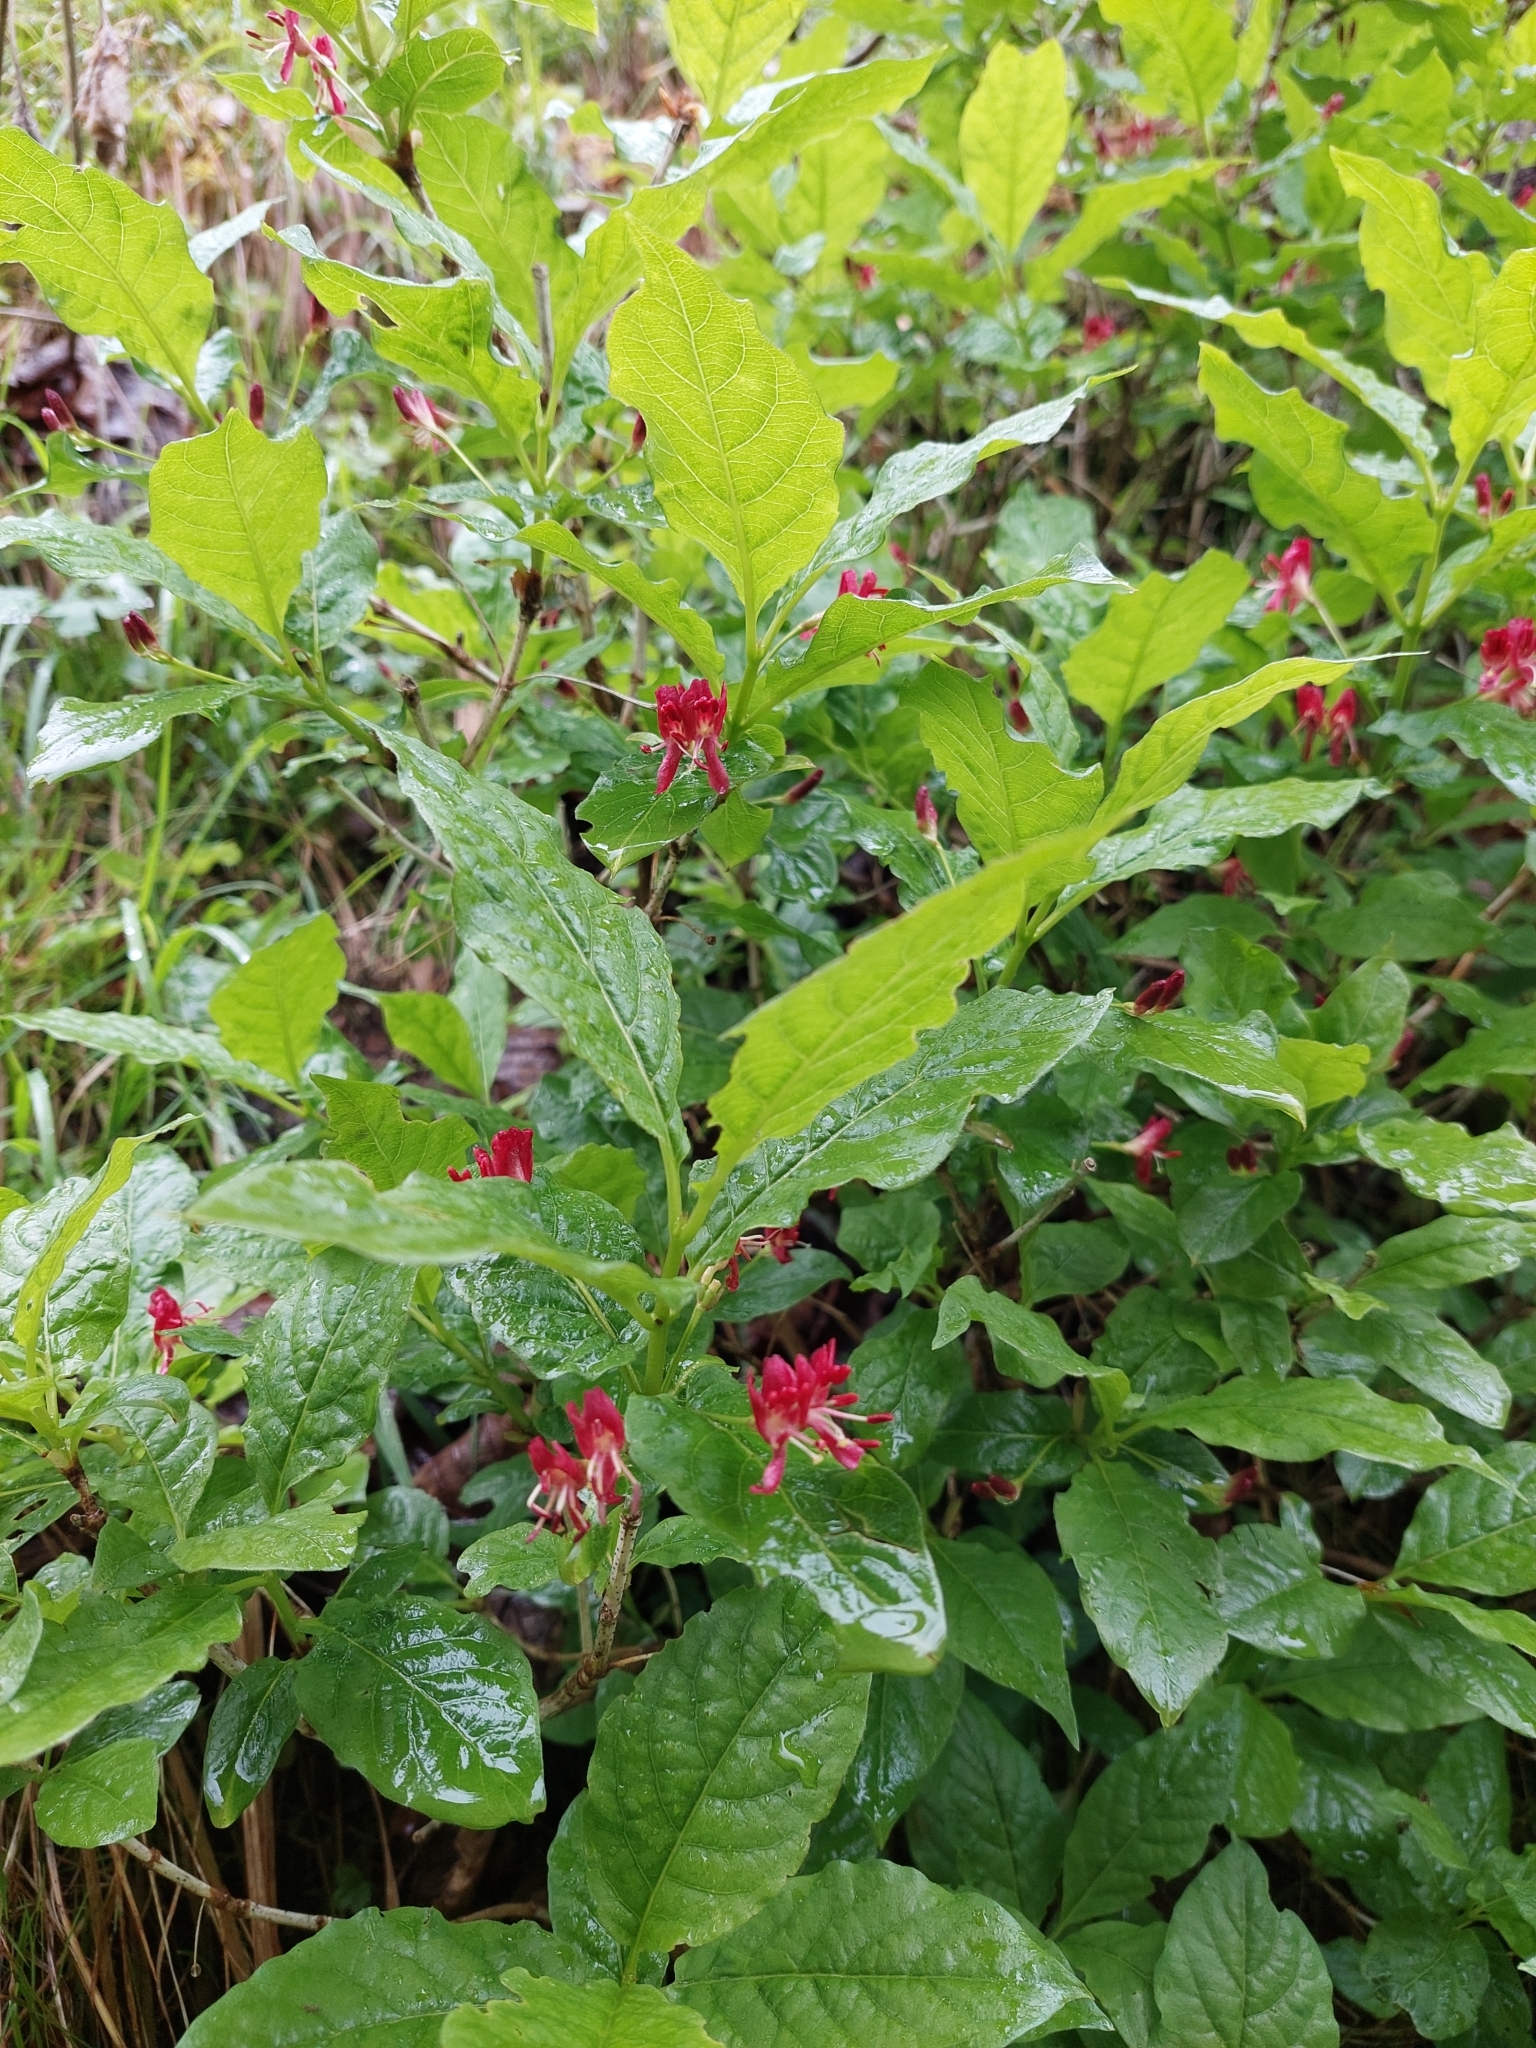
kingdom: Plantae
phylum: Tracheophyta
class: Magnoliopsida
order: Dipsacales
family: Caprifoliaceae
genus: Lonicera
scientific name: Lonicera alpigena
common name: Alpine honeysuckle
